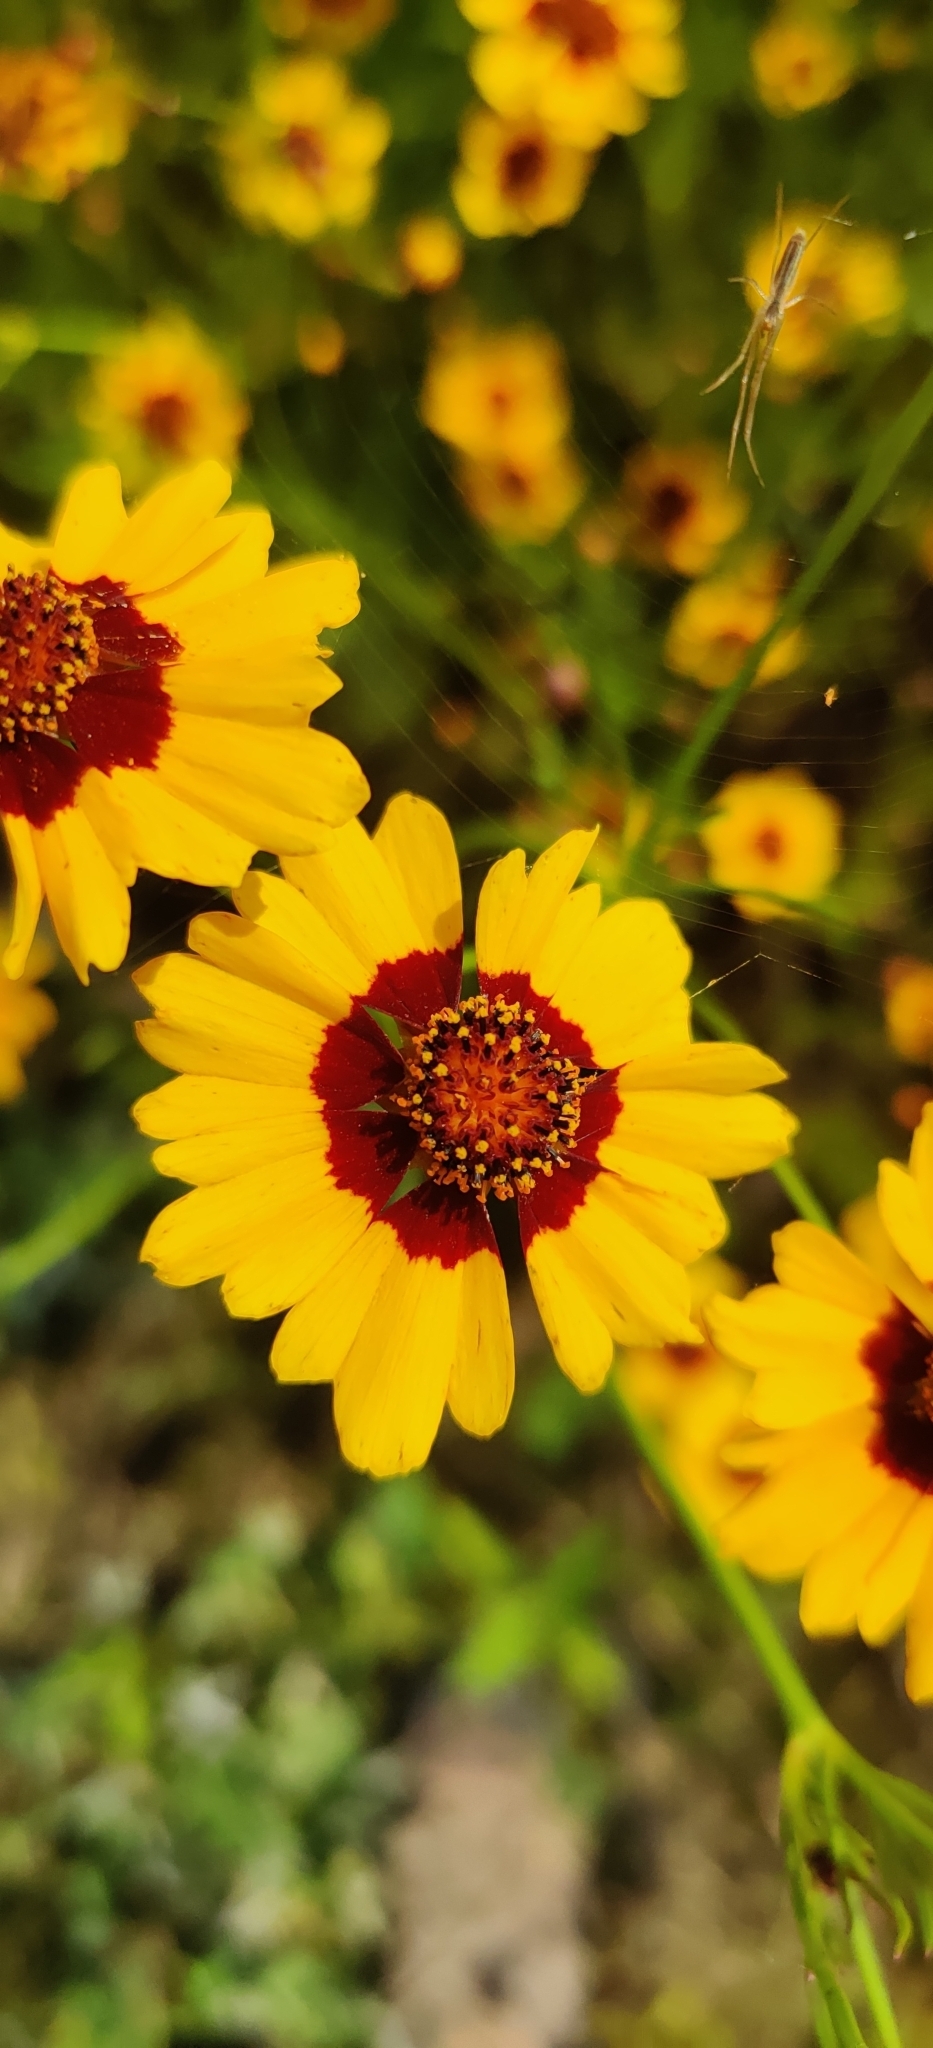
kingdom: Plantae
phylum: Tracheophyta
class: Magnoliopsida
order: Asterales
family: Asteraceae
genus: Coreopsis
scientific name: Coreopsis tinctoria
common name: Garden tickseed
